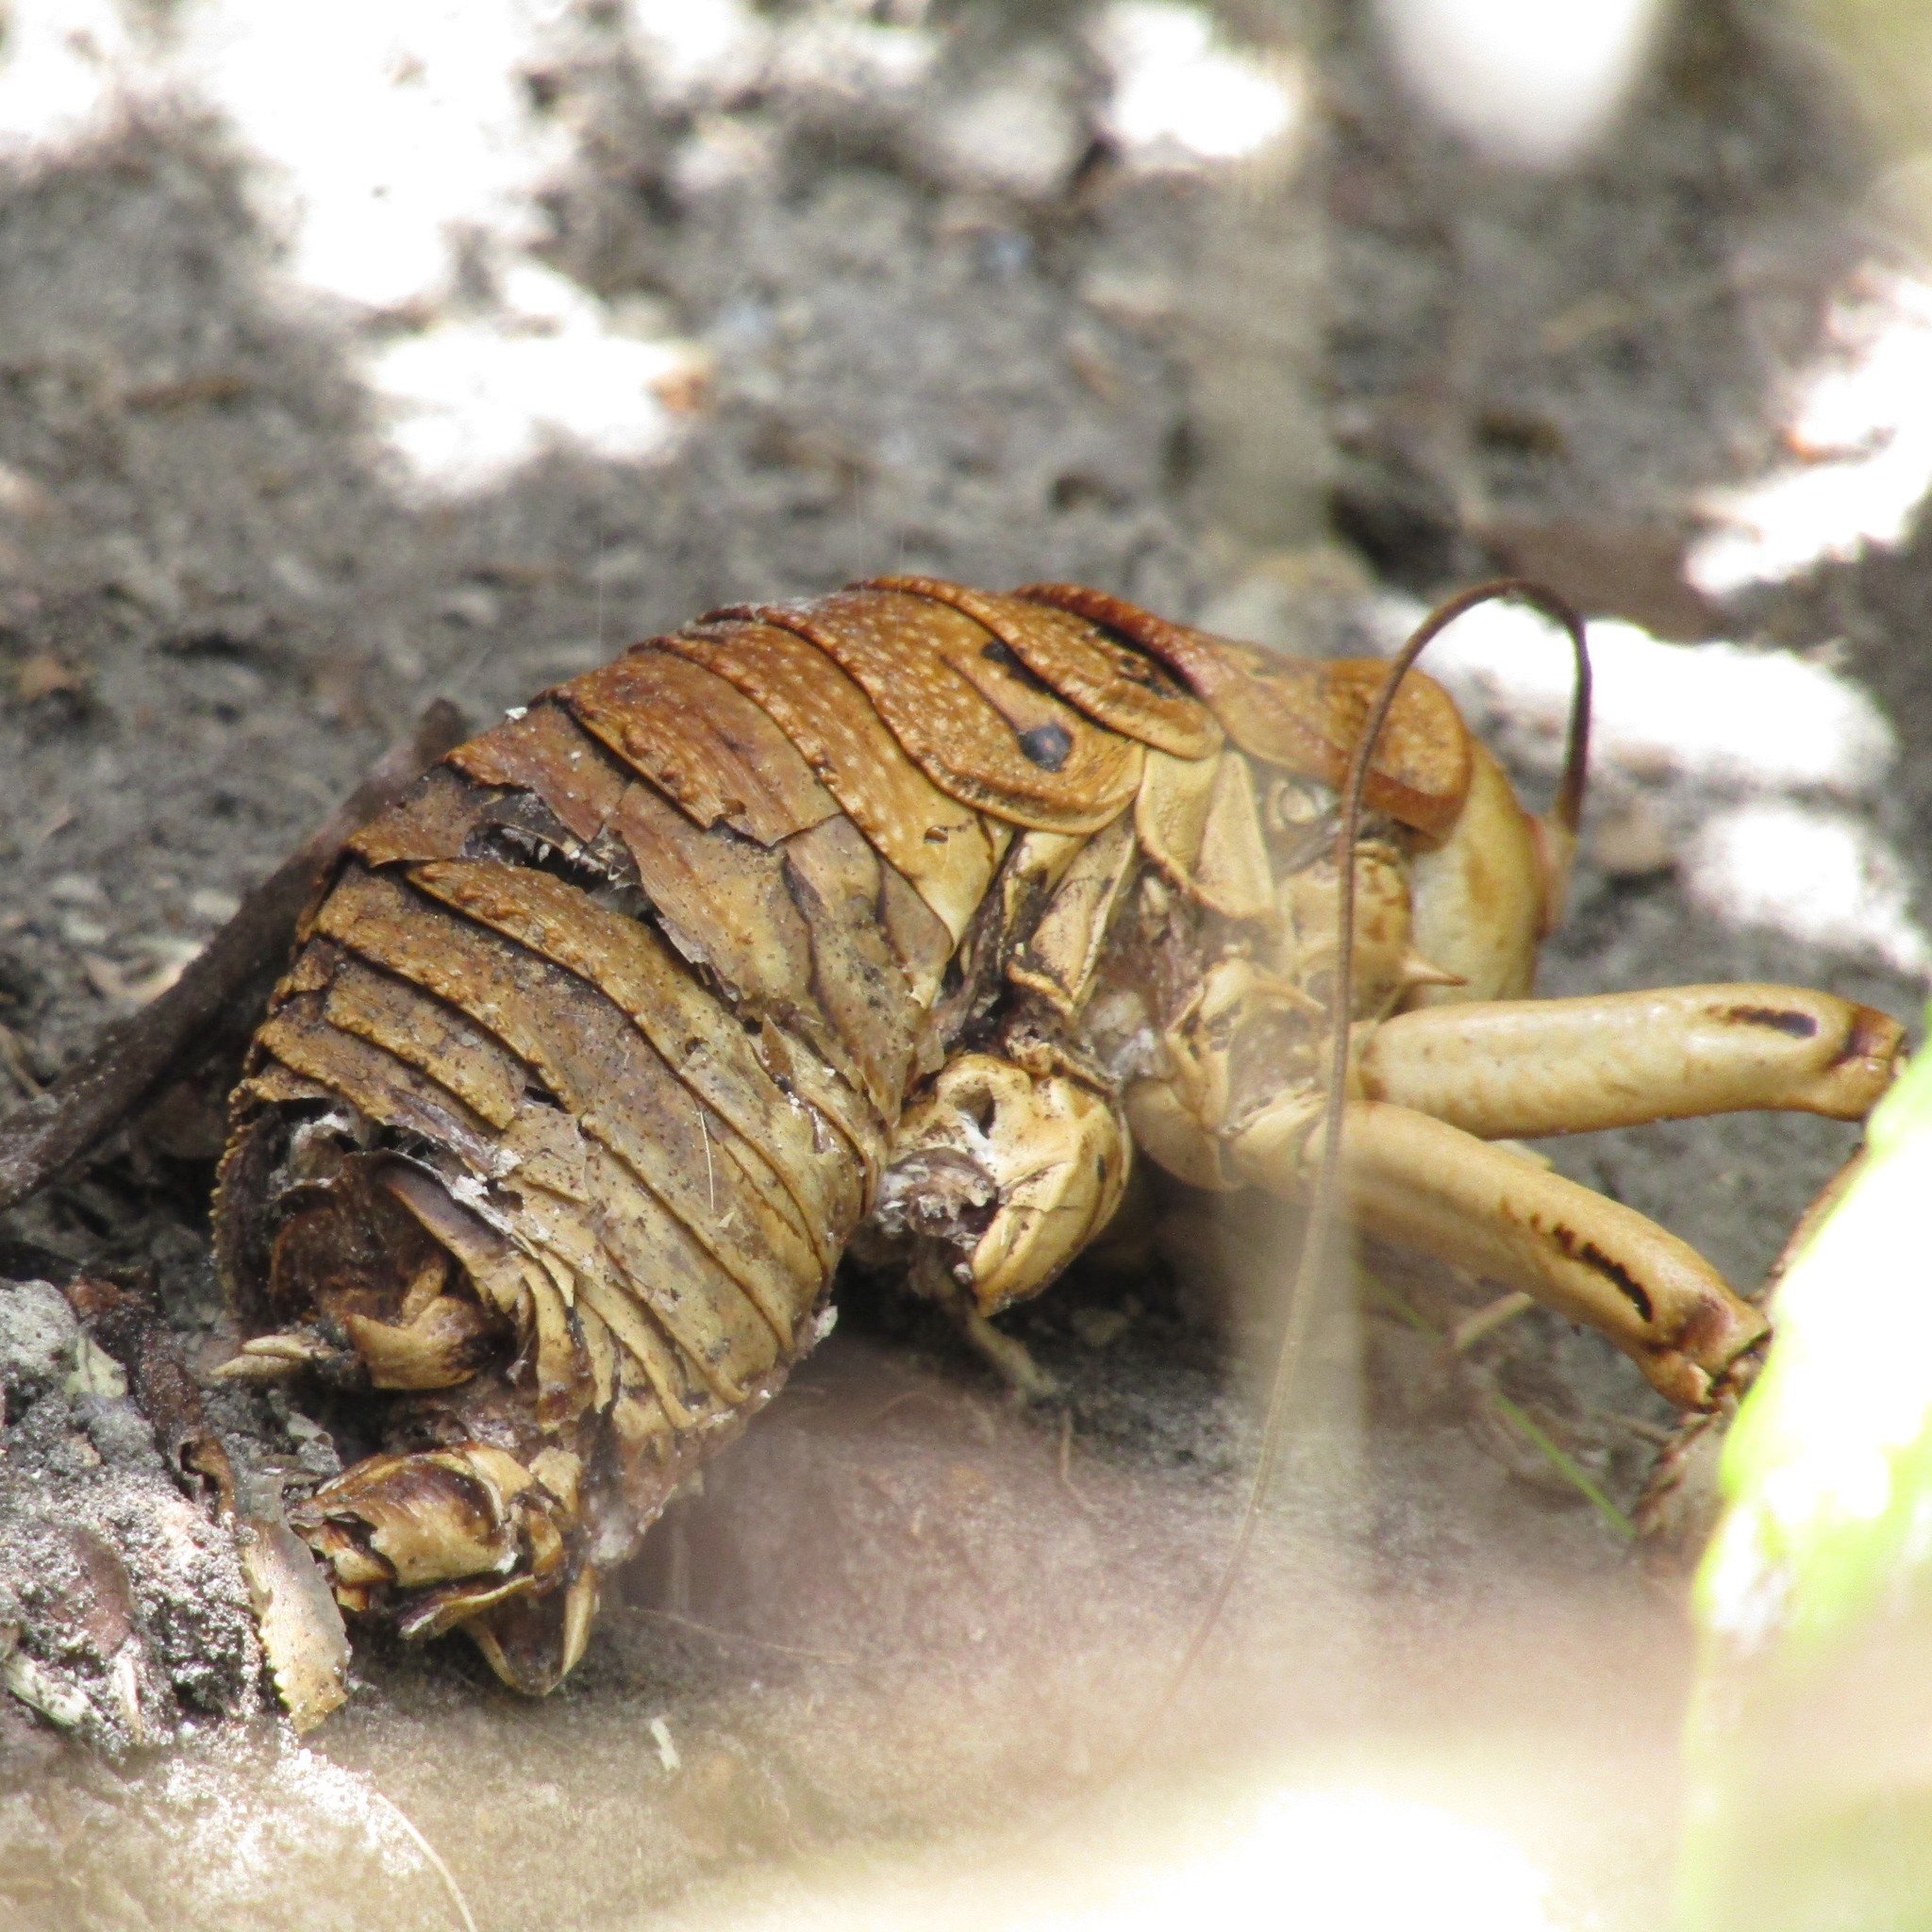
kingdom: Animalia
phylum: Arthropoda
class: Insecta
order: Orthoptera
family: Anostostomatidae
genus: Deinacrida
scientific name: Deinacrida rugosa
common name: Stephens island weta
